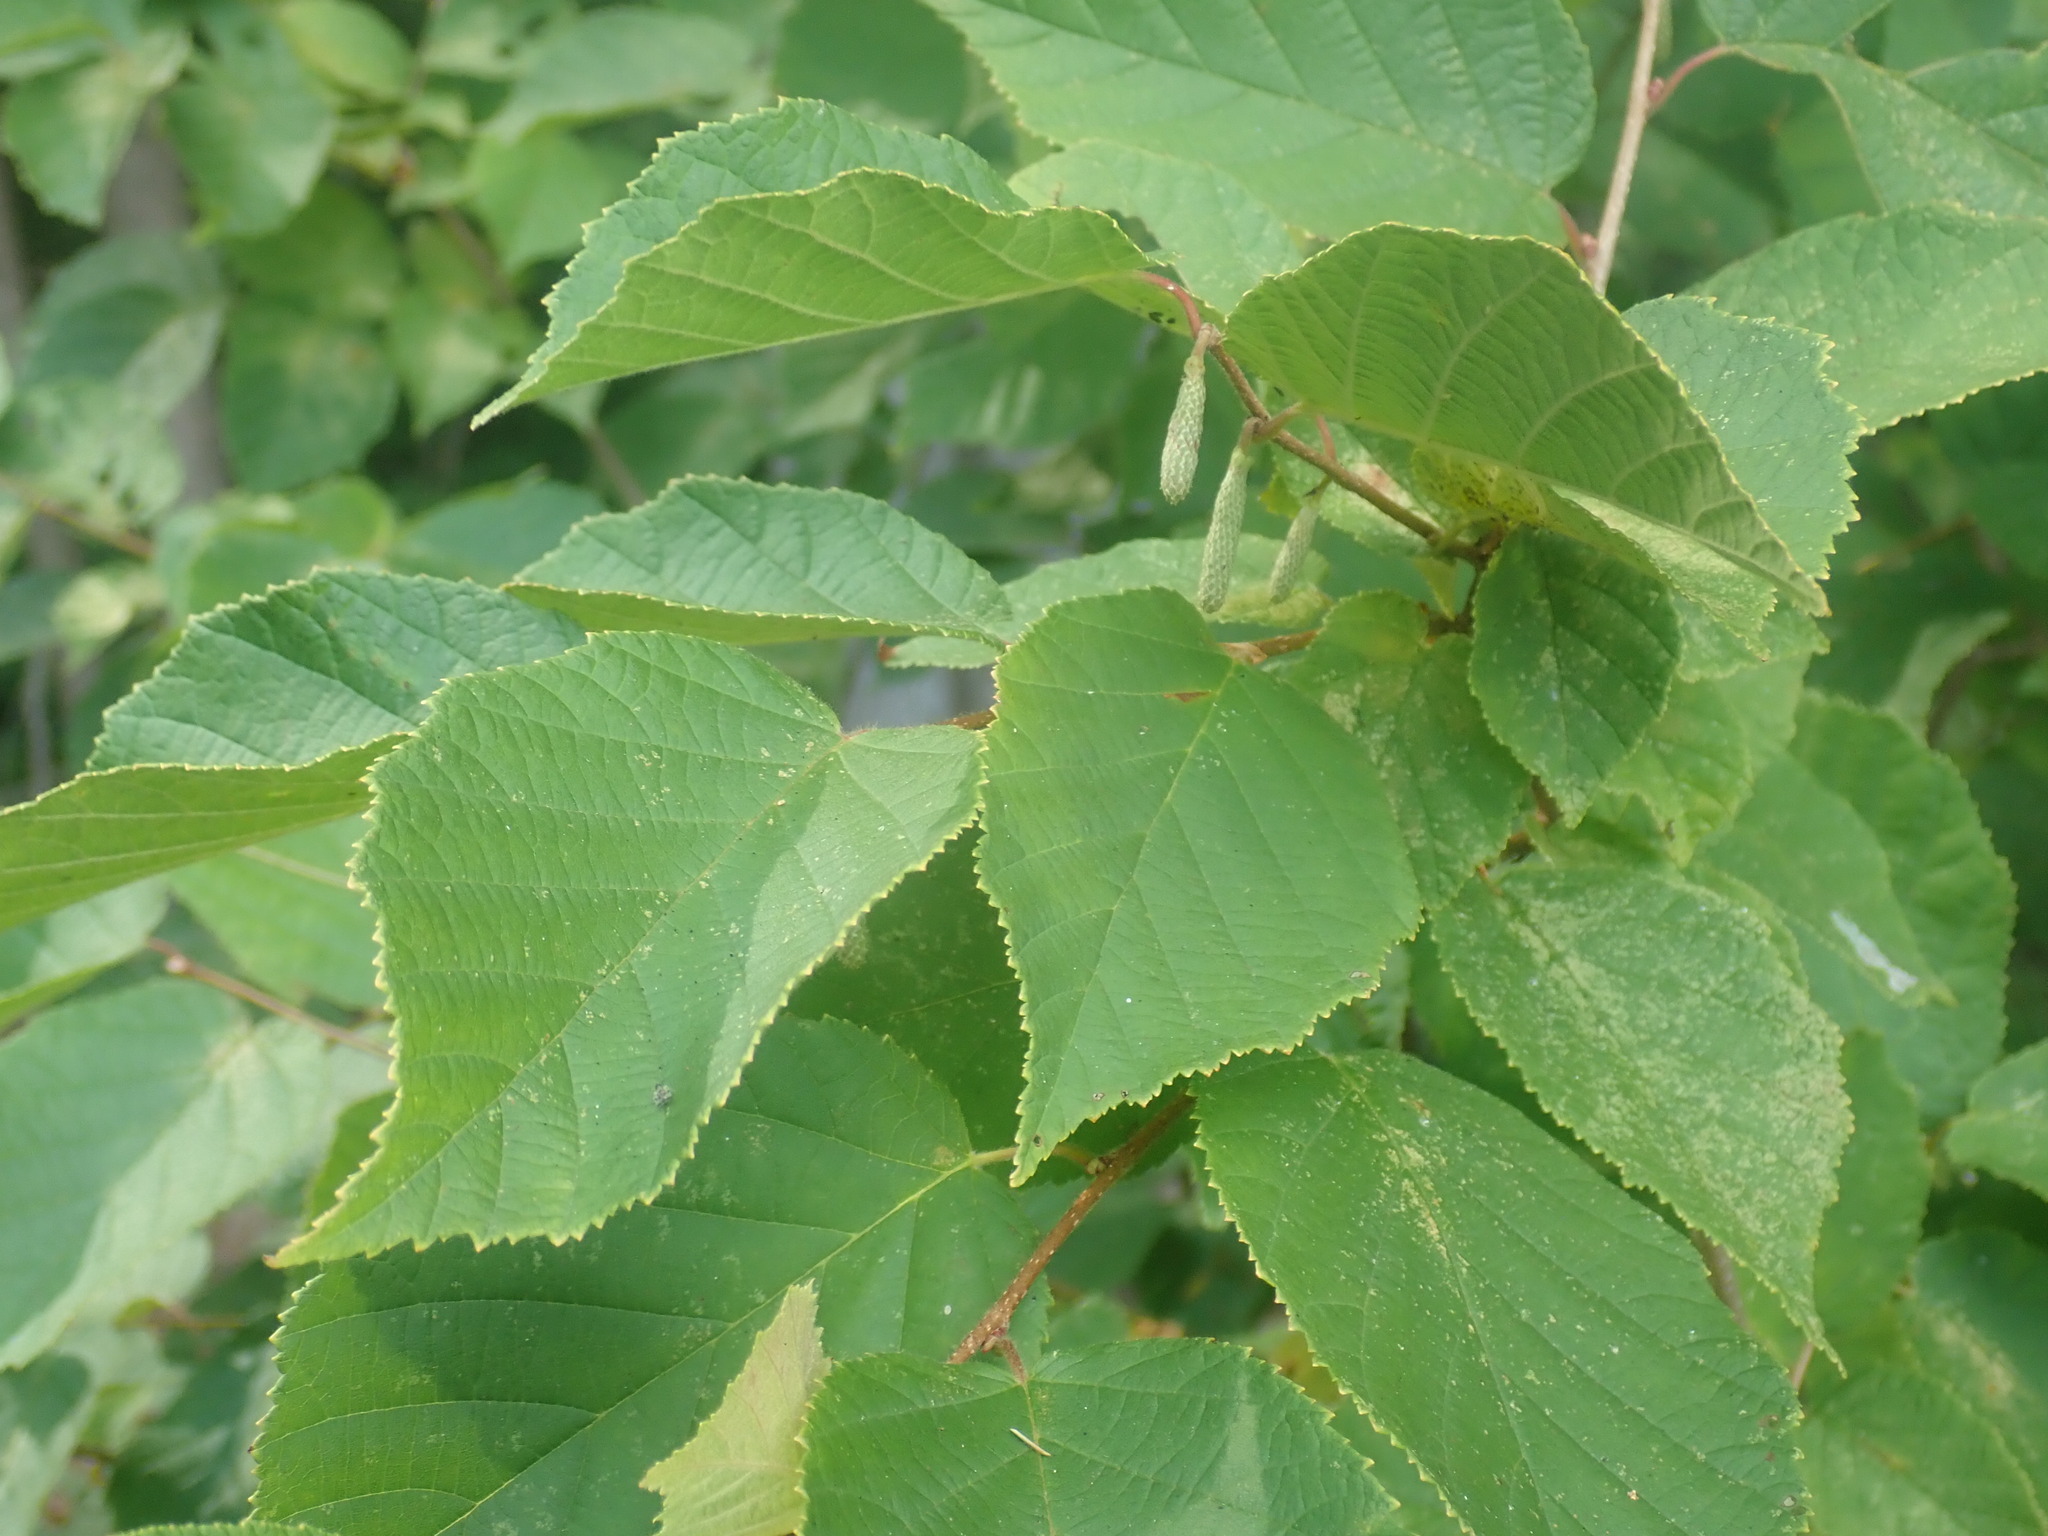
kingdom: Plantae
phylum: Tracheophyta
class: Magnoliopsida
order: Fagales
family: Betulaceae
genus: Corylus
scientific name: Corylus americana
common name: American hazel
